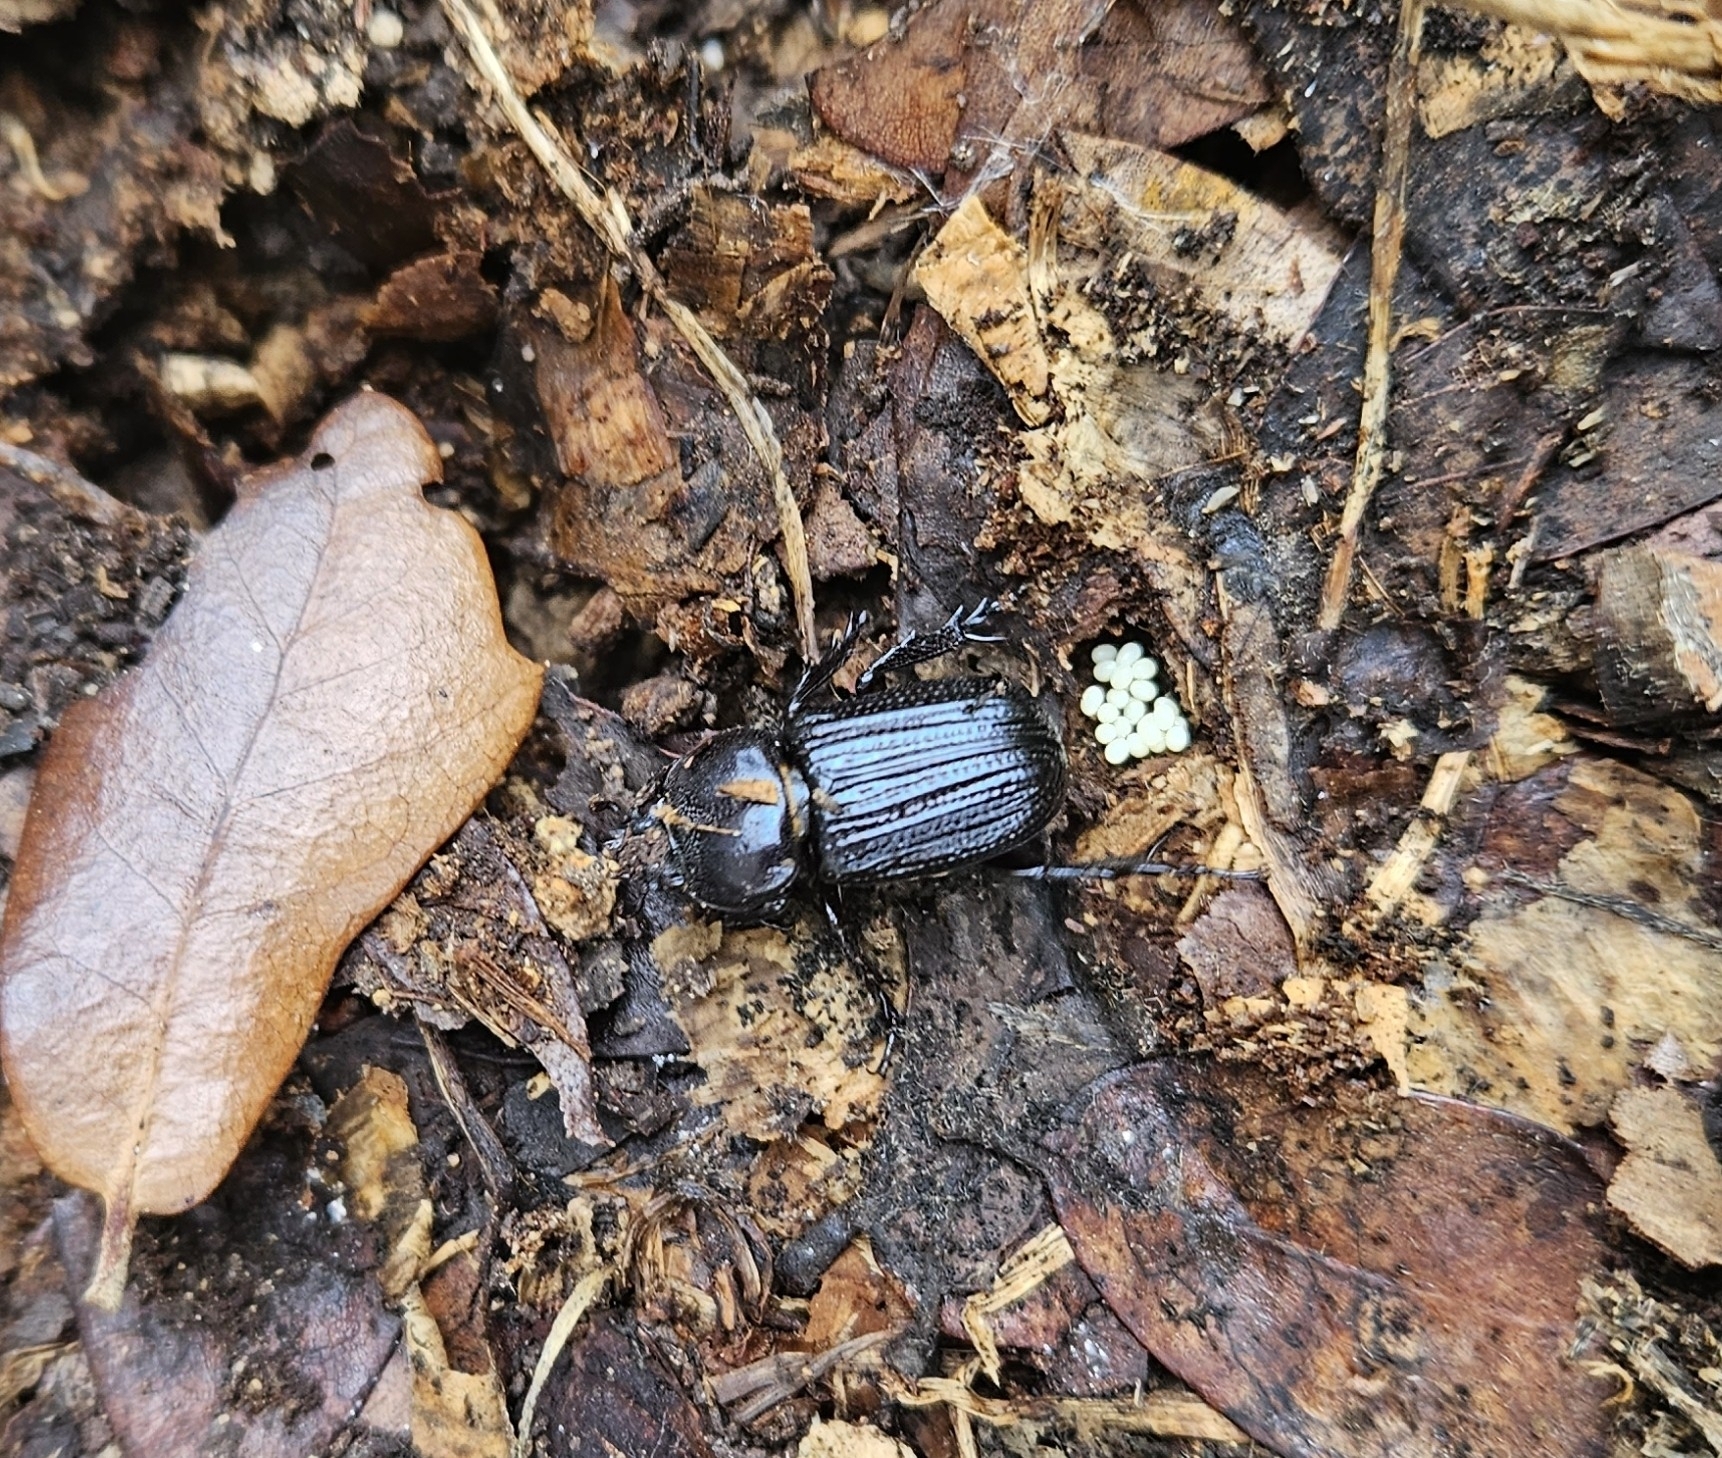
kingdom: Animalia
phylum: Arthropoda
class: Insecta
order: Coleoptera
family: Scarabaeidae
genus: Phileurus
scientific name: Phileurus valgus
